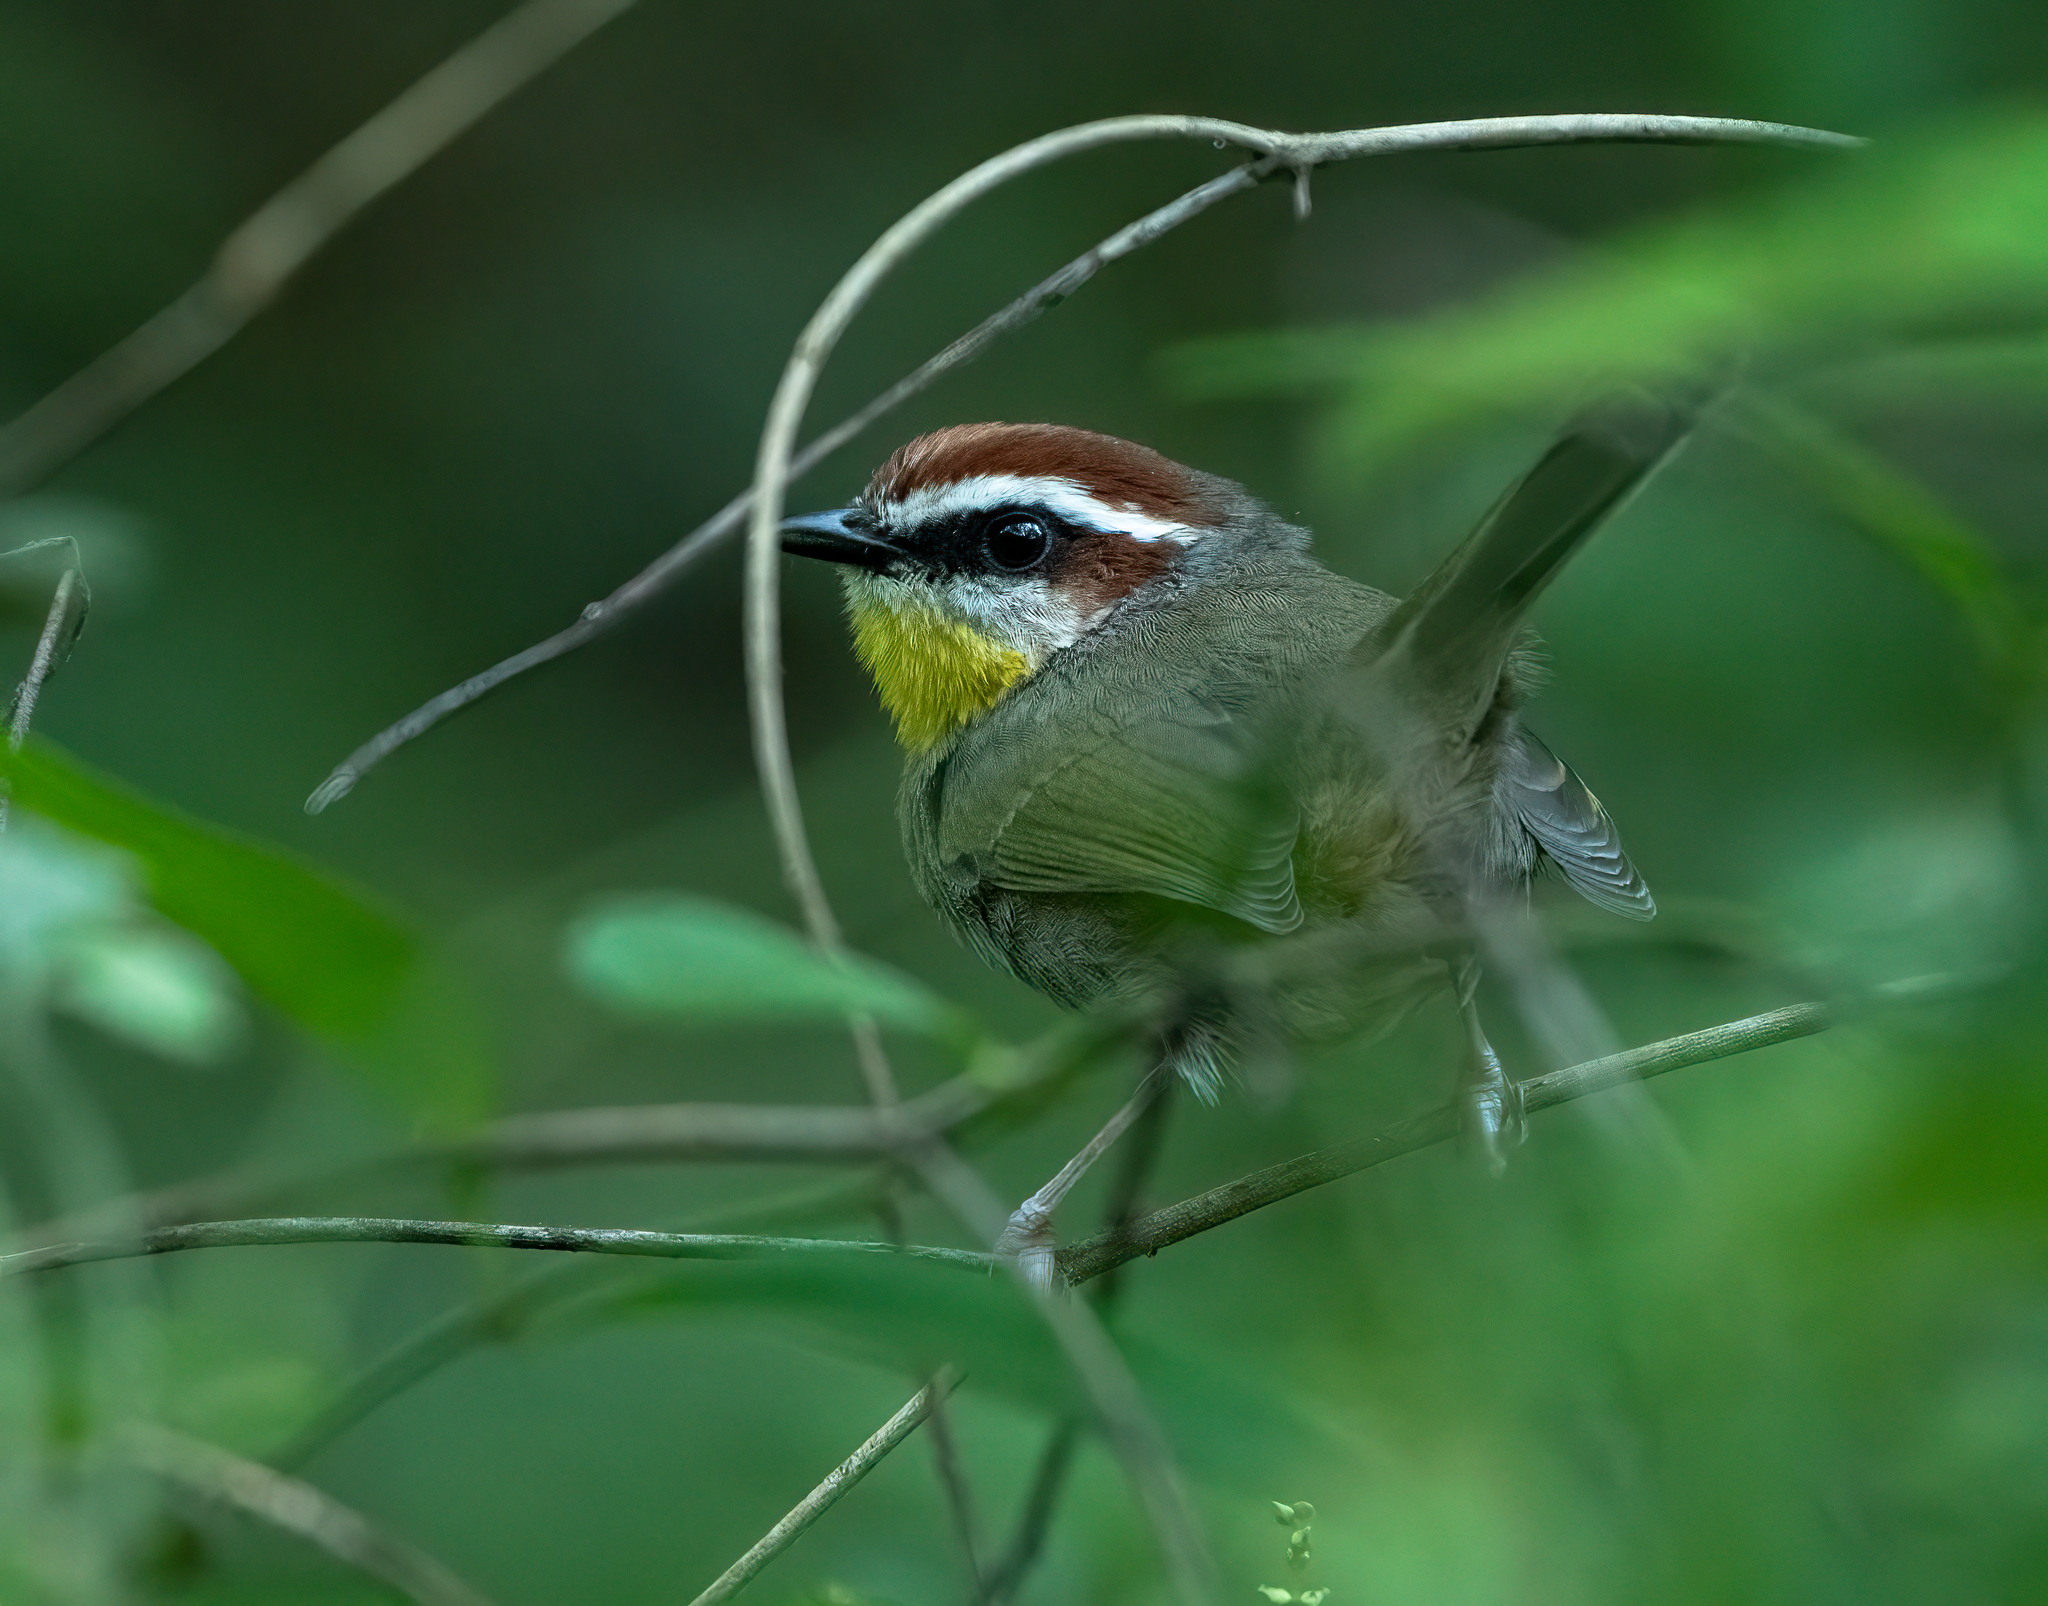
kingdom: Animalia
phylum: Chordata
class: Aves
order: Passeriformes
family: Parulidae
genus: Basileuterus
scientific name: Basileuterus rufifrons
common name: Rufous-capped warbler
